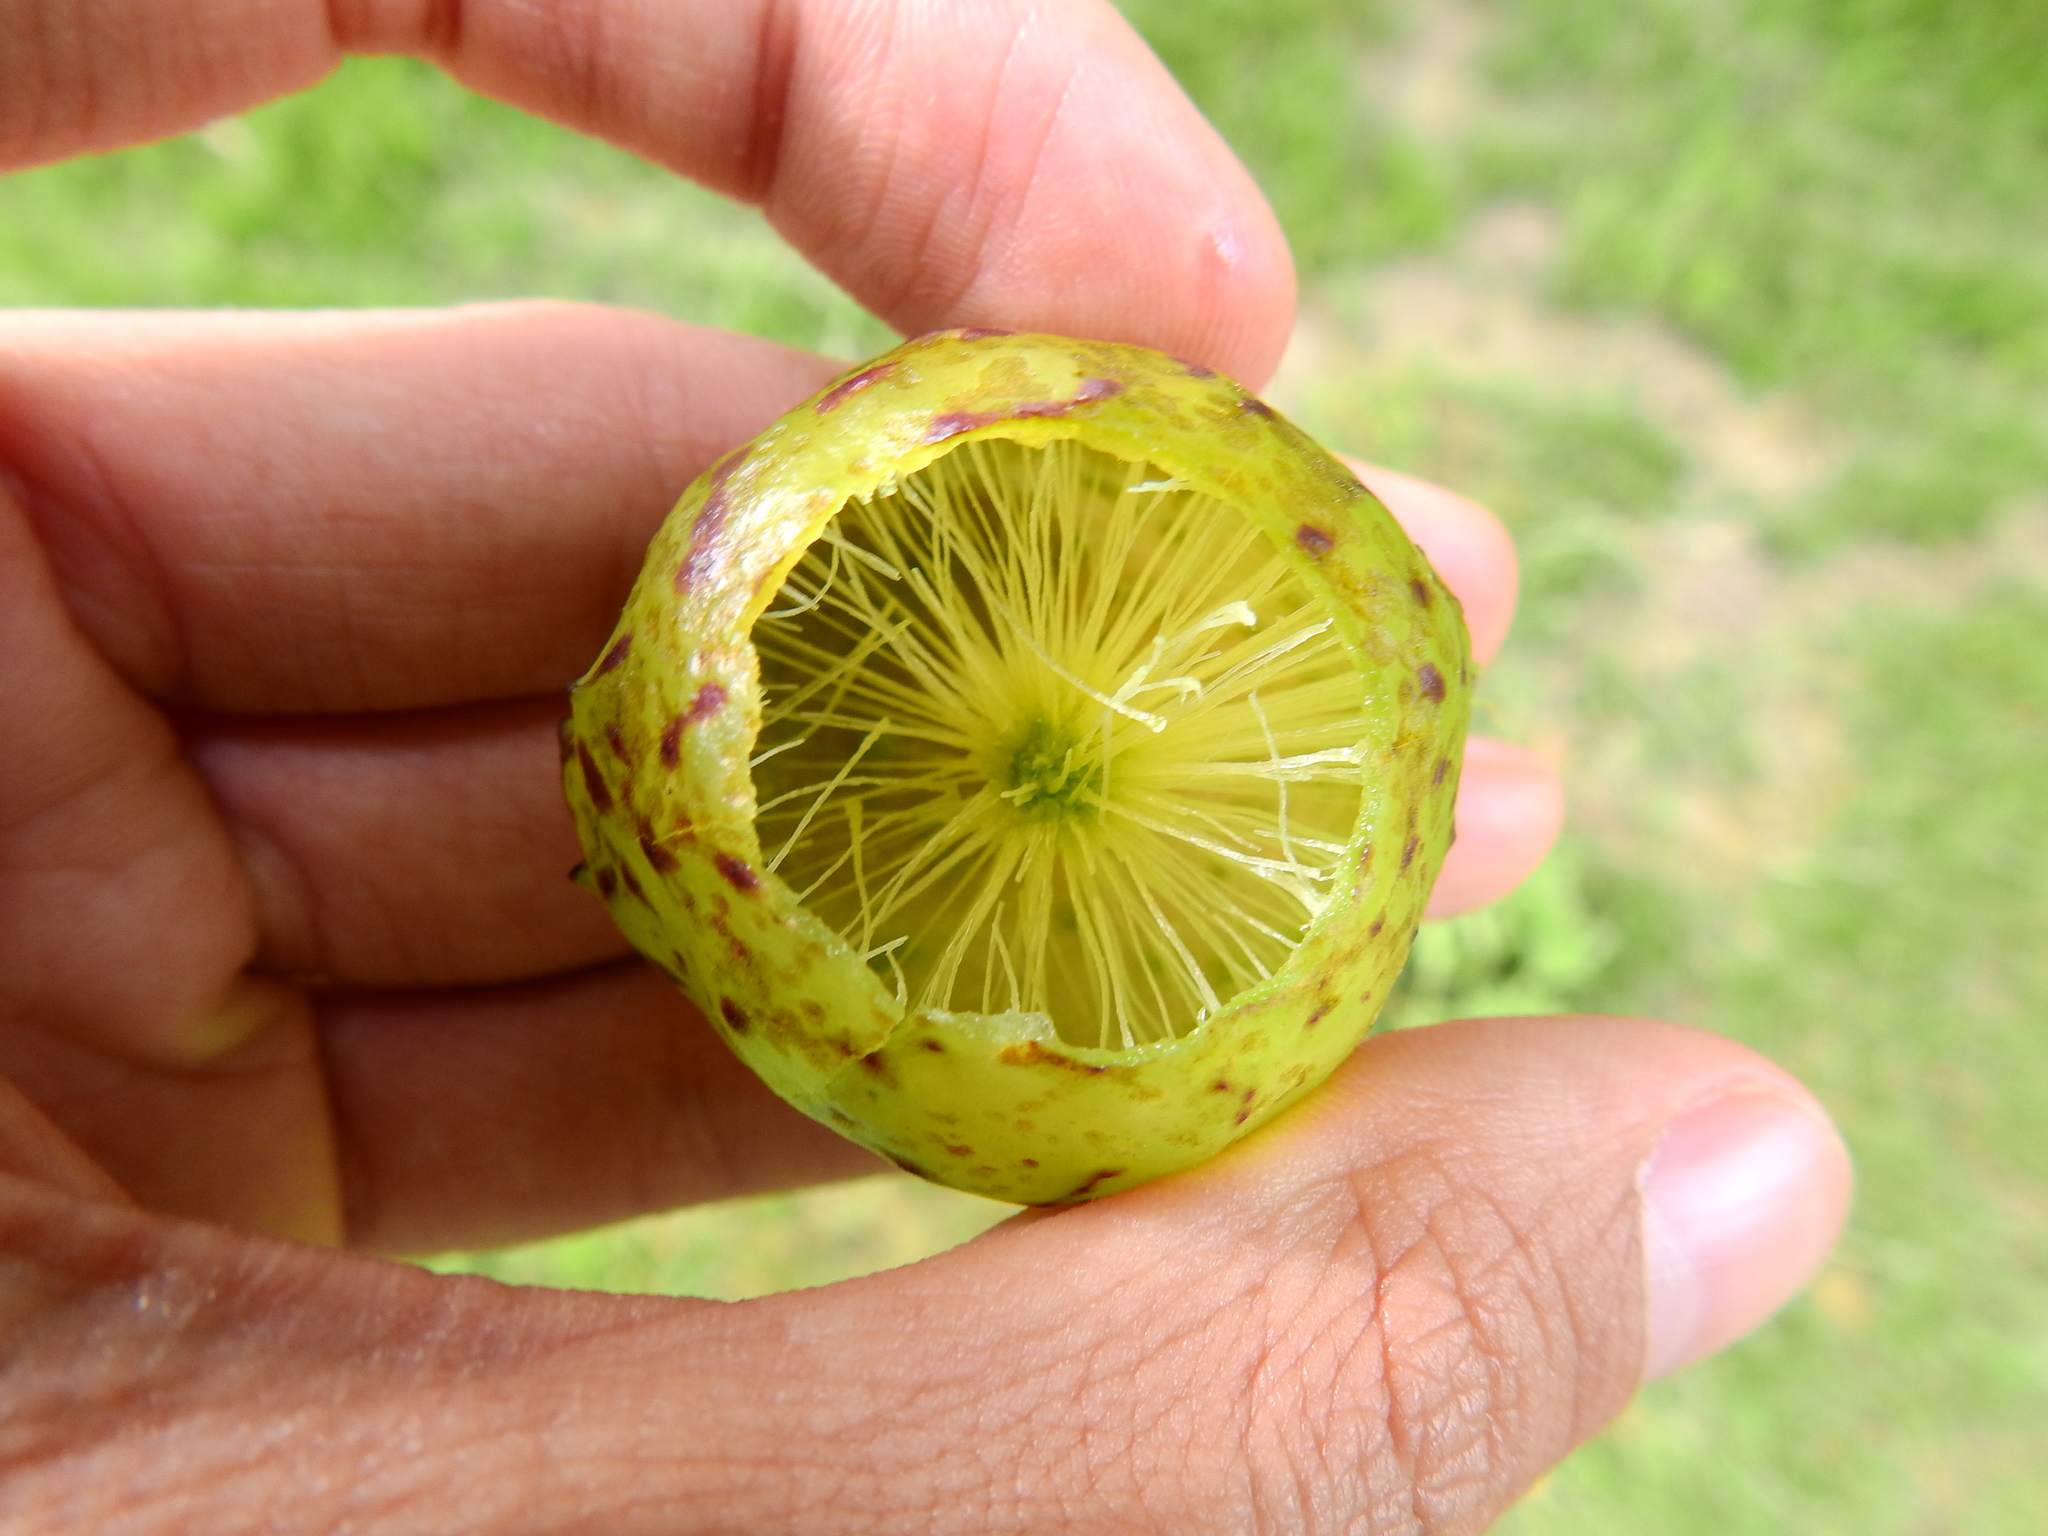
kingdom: Animalia
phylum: Arthropoda
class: Insecta
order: Hymenoptera
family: Cynipidae
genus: Amphibolips
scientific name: Amphibolips
